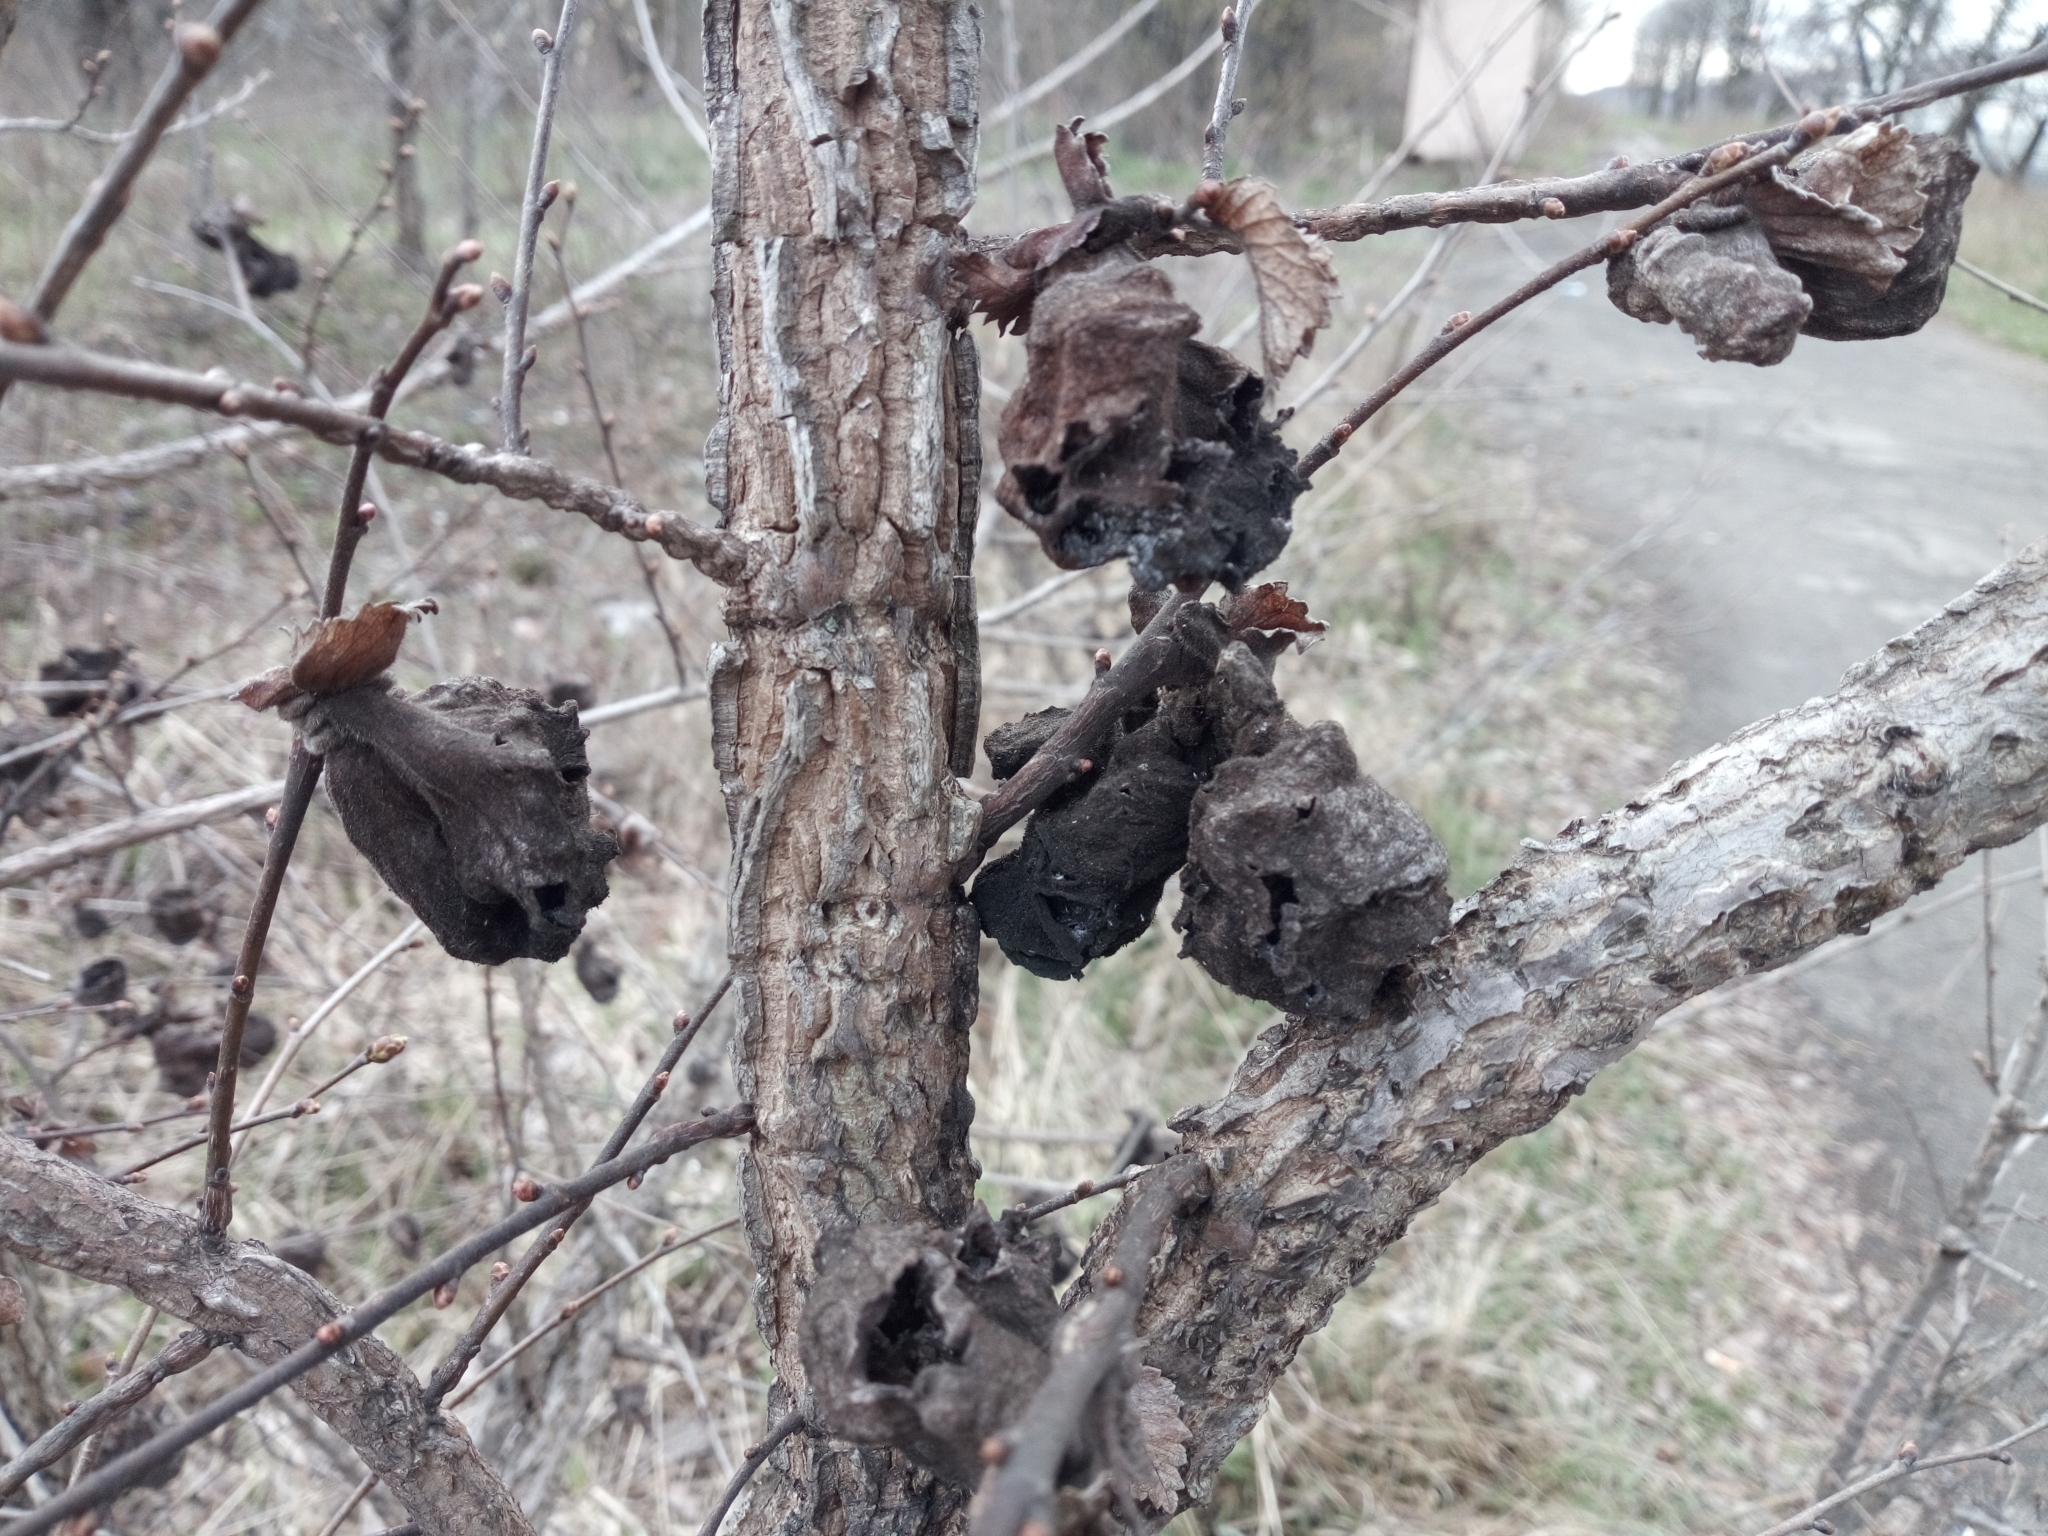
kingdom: Animalia
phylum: Arthropoda
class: Insecta
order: Hemiptera
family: Aphididae
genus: Eriosoma
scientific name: Eriosoma lanuginosum
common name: Aphid
